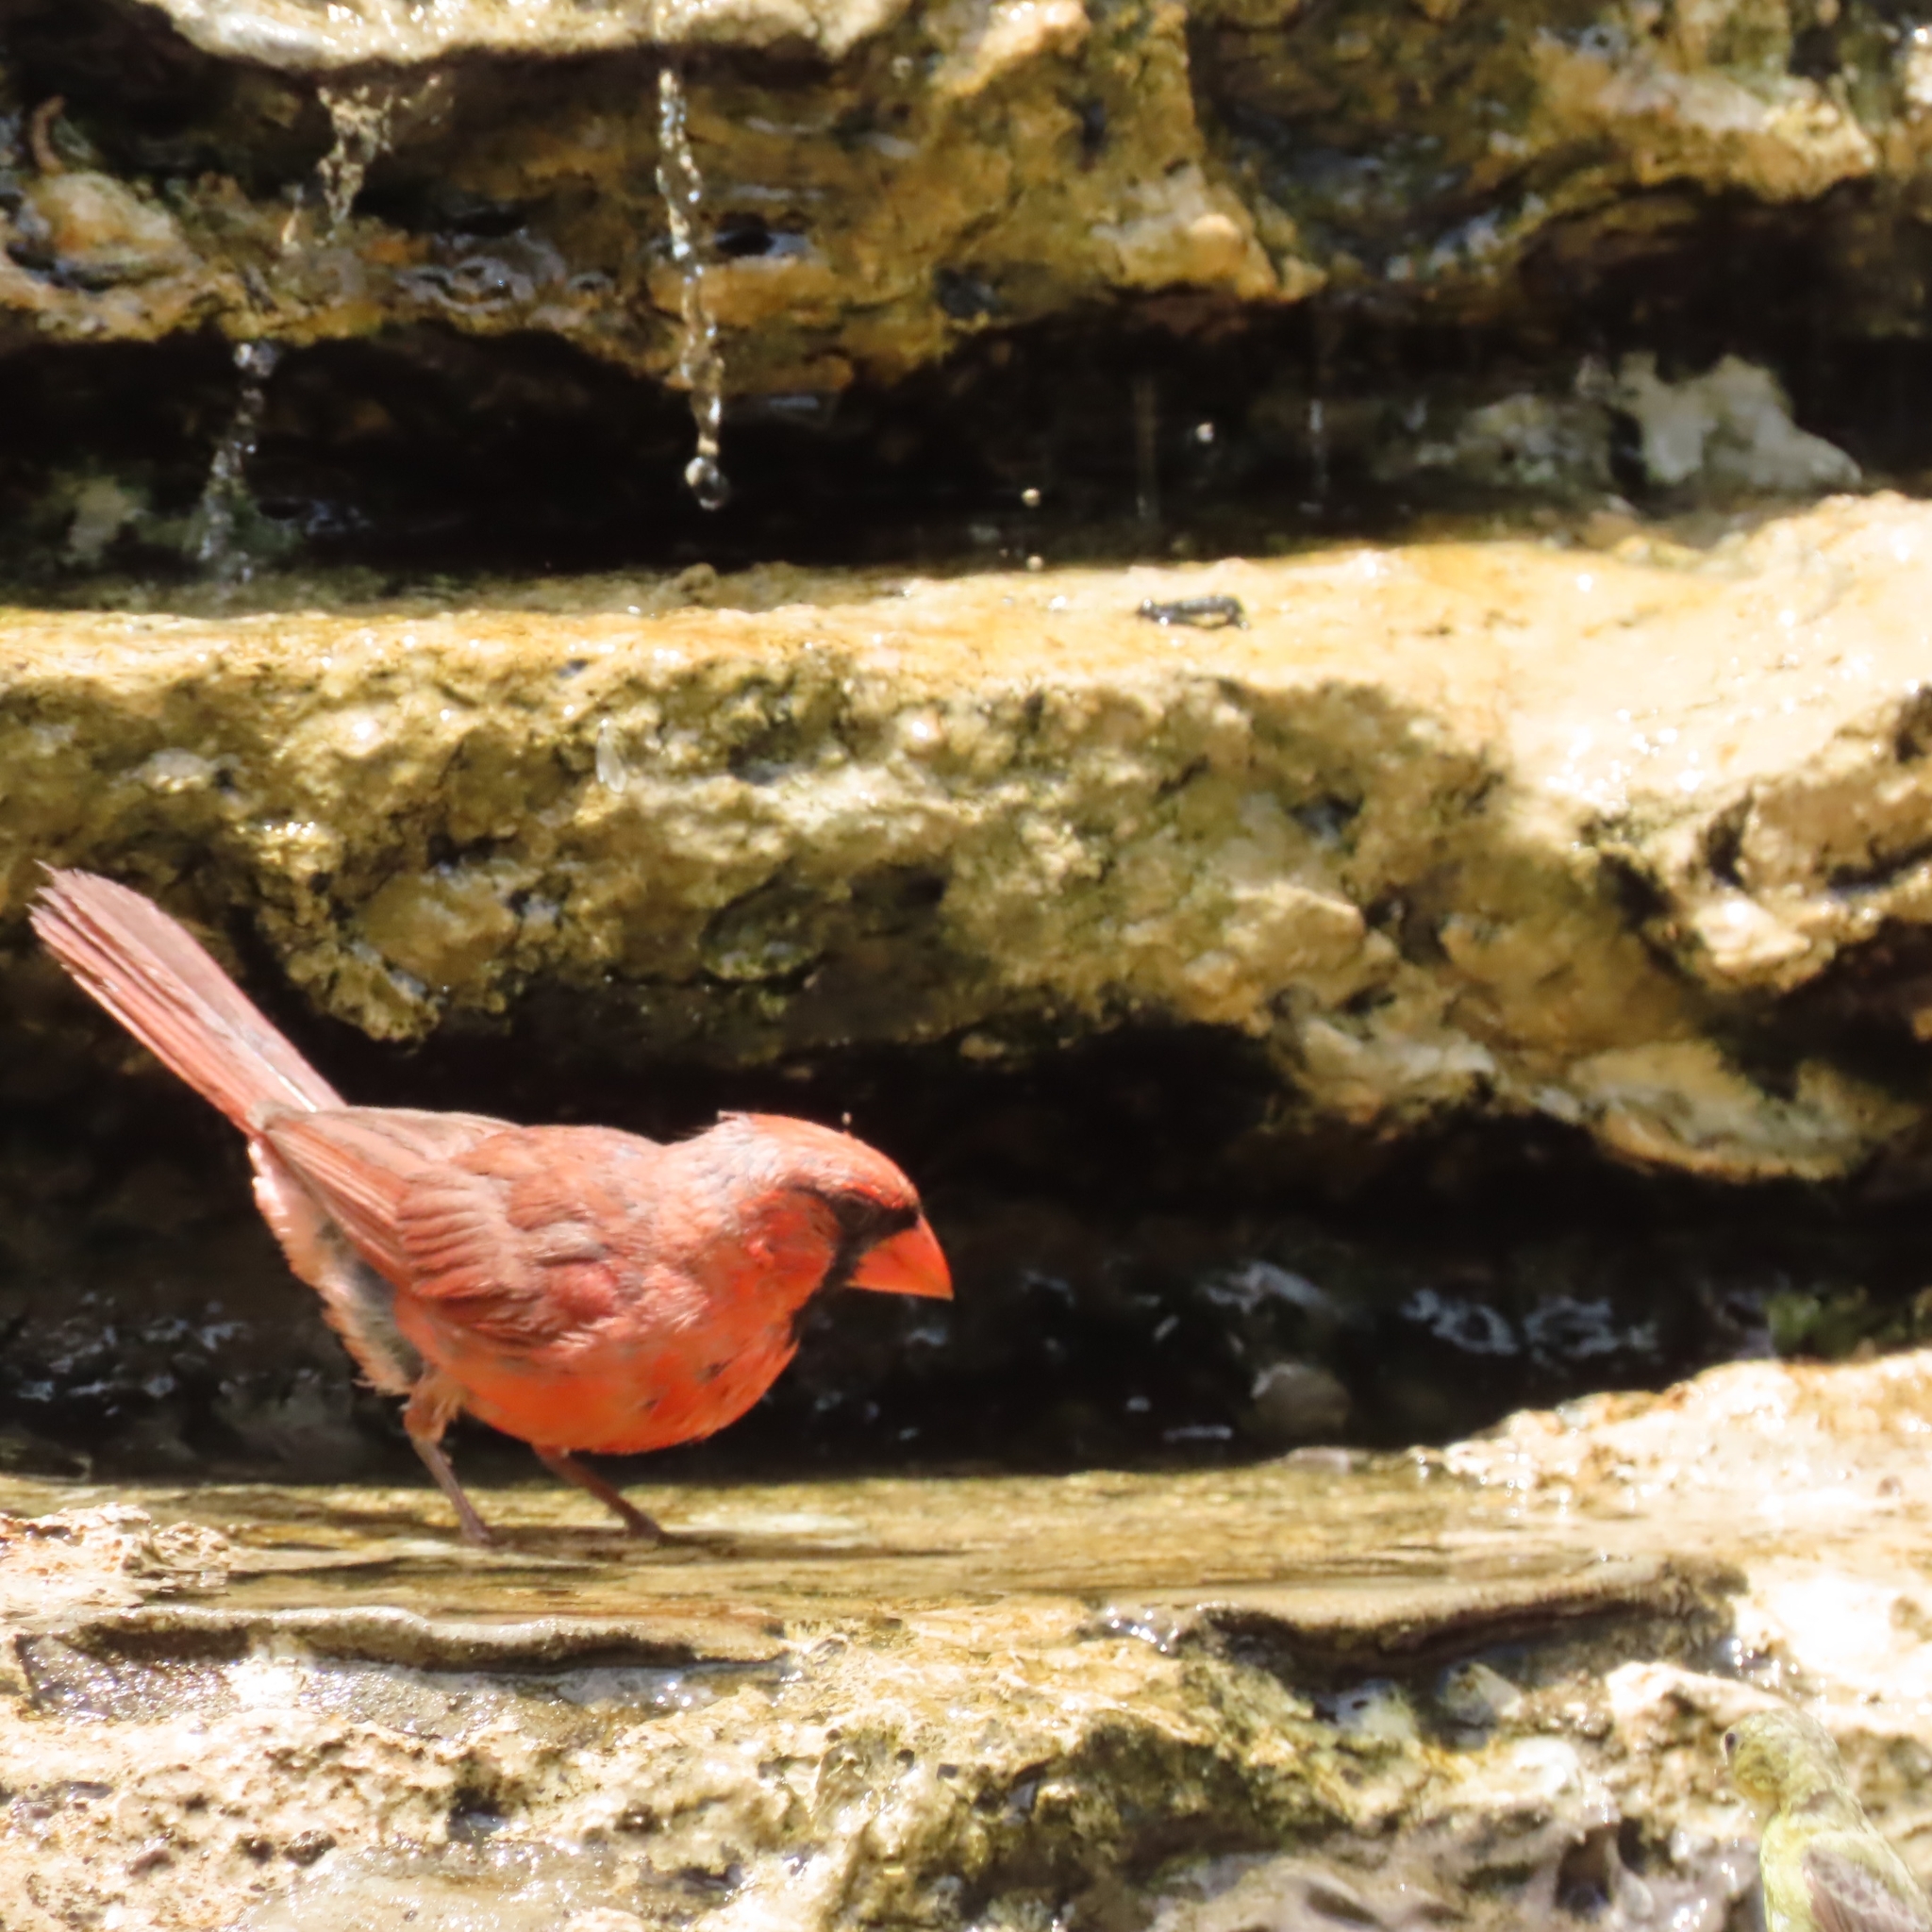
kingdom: Animalia
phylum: Chordata
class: Aves
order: Passeriformes
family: Cardinalidae
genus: Cardinalis
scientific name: Cardinalis cardinalis
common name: Northern cardinal
